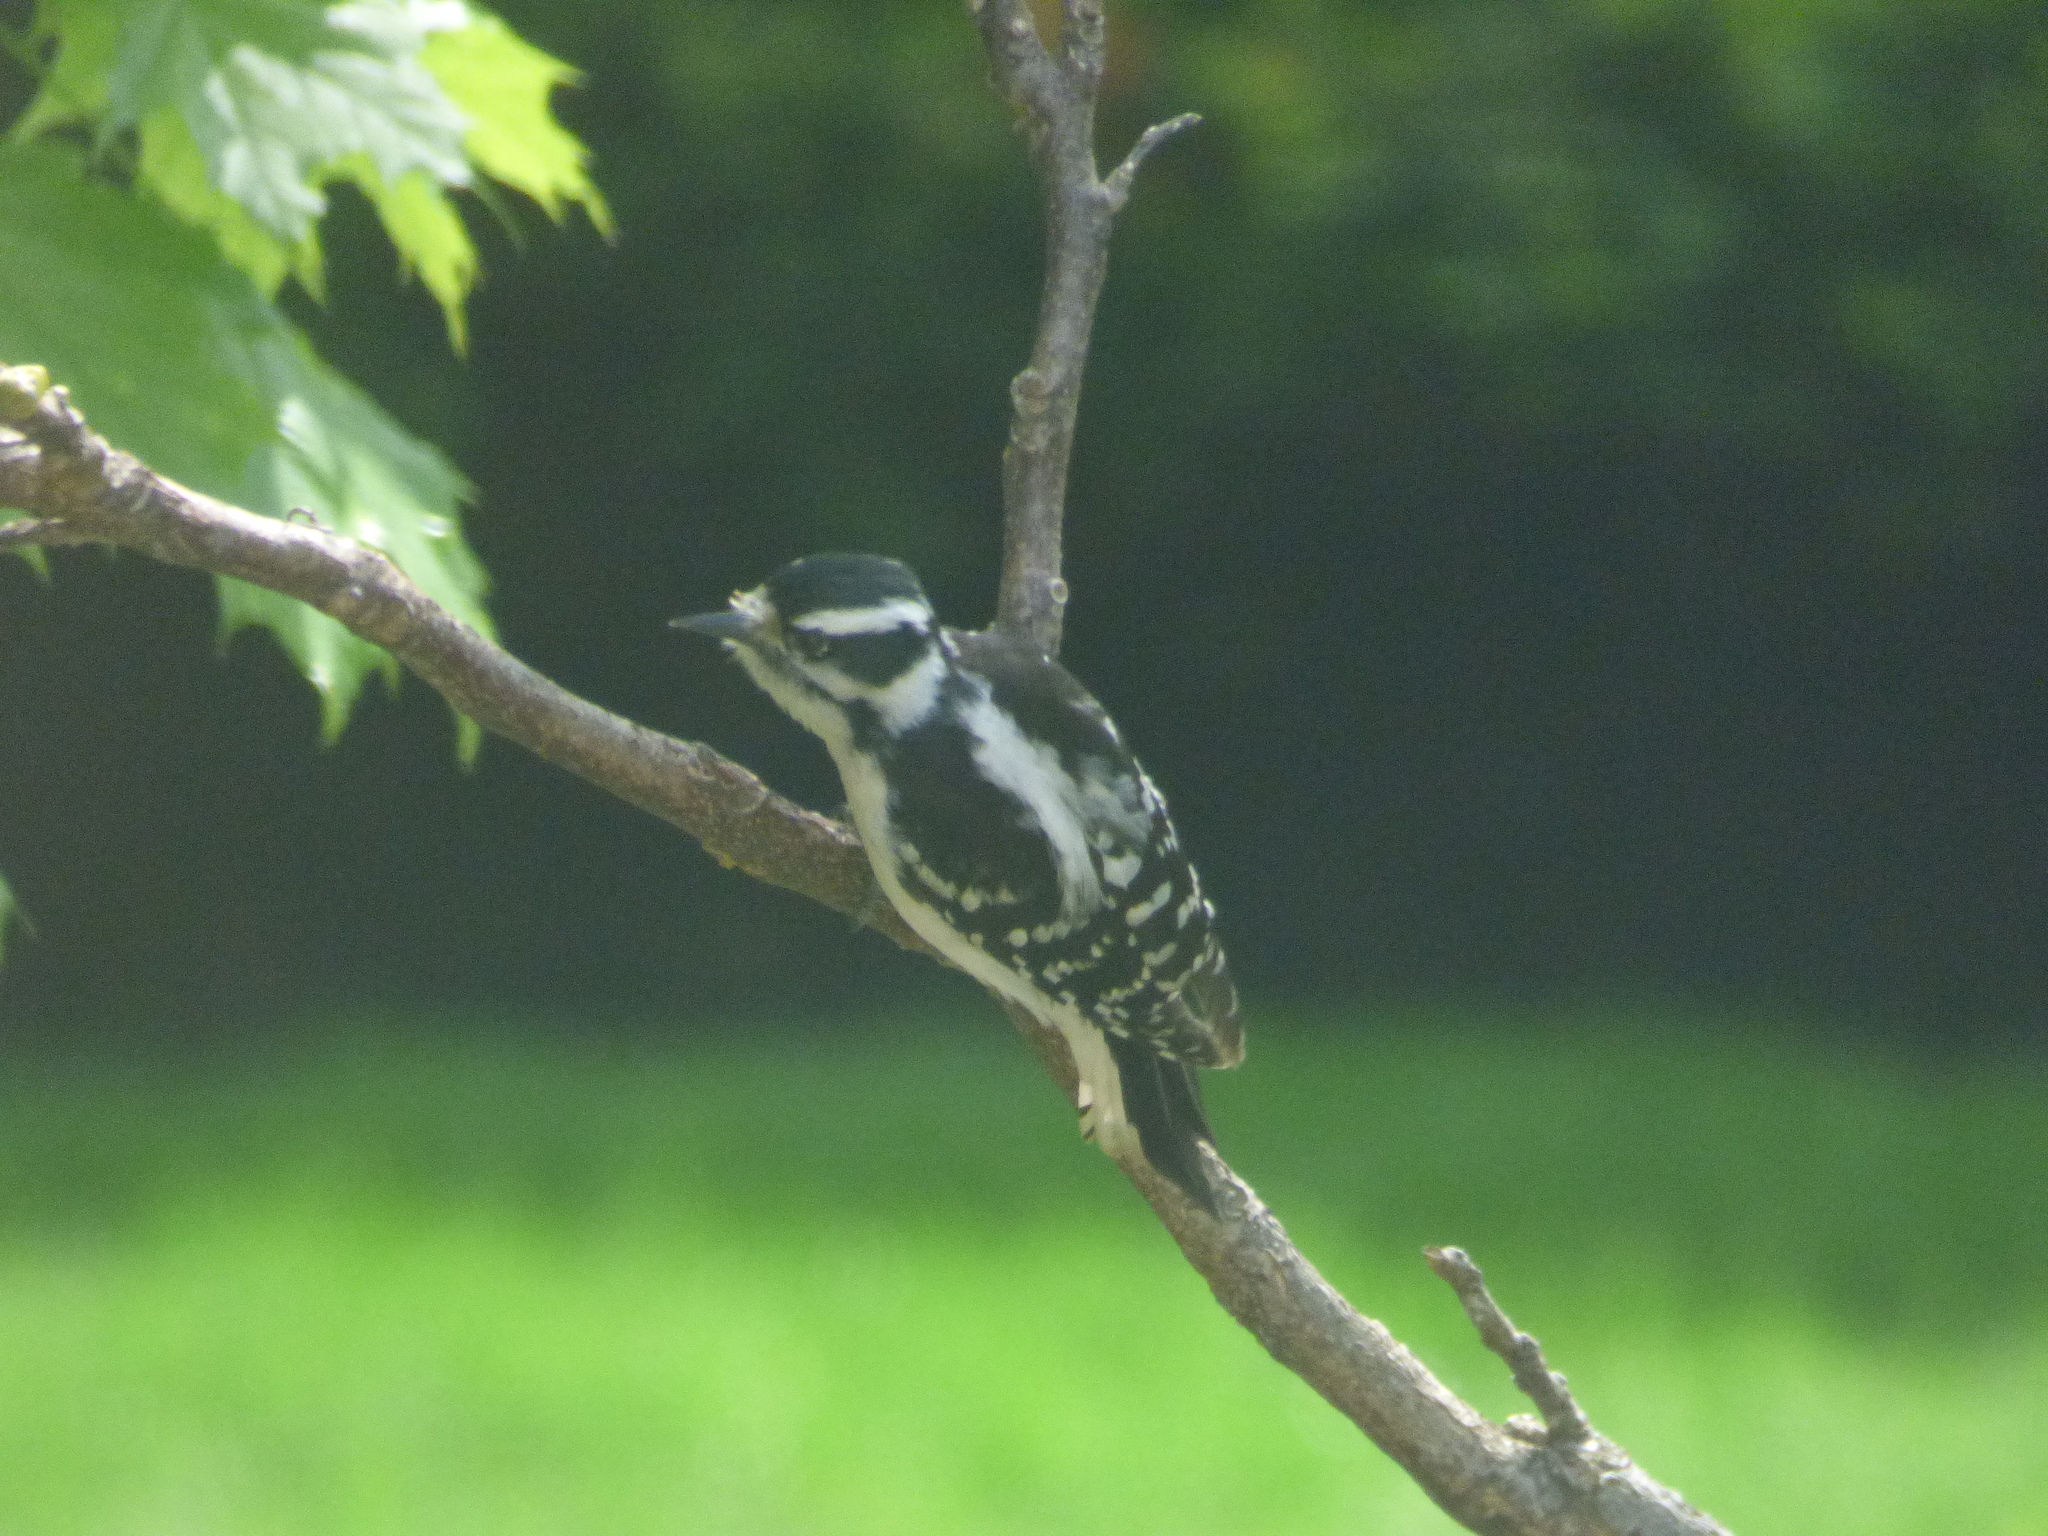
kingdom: Animalia
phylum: Chordata
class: Aves
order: Piciformes
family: Picidae
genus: Dryobates
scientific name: Dryobates pubescens
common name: Downy woodpecker
